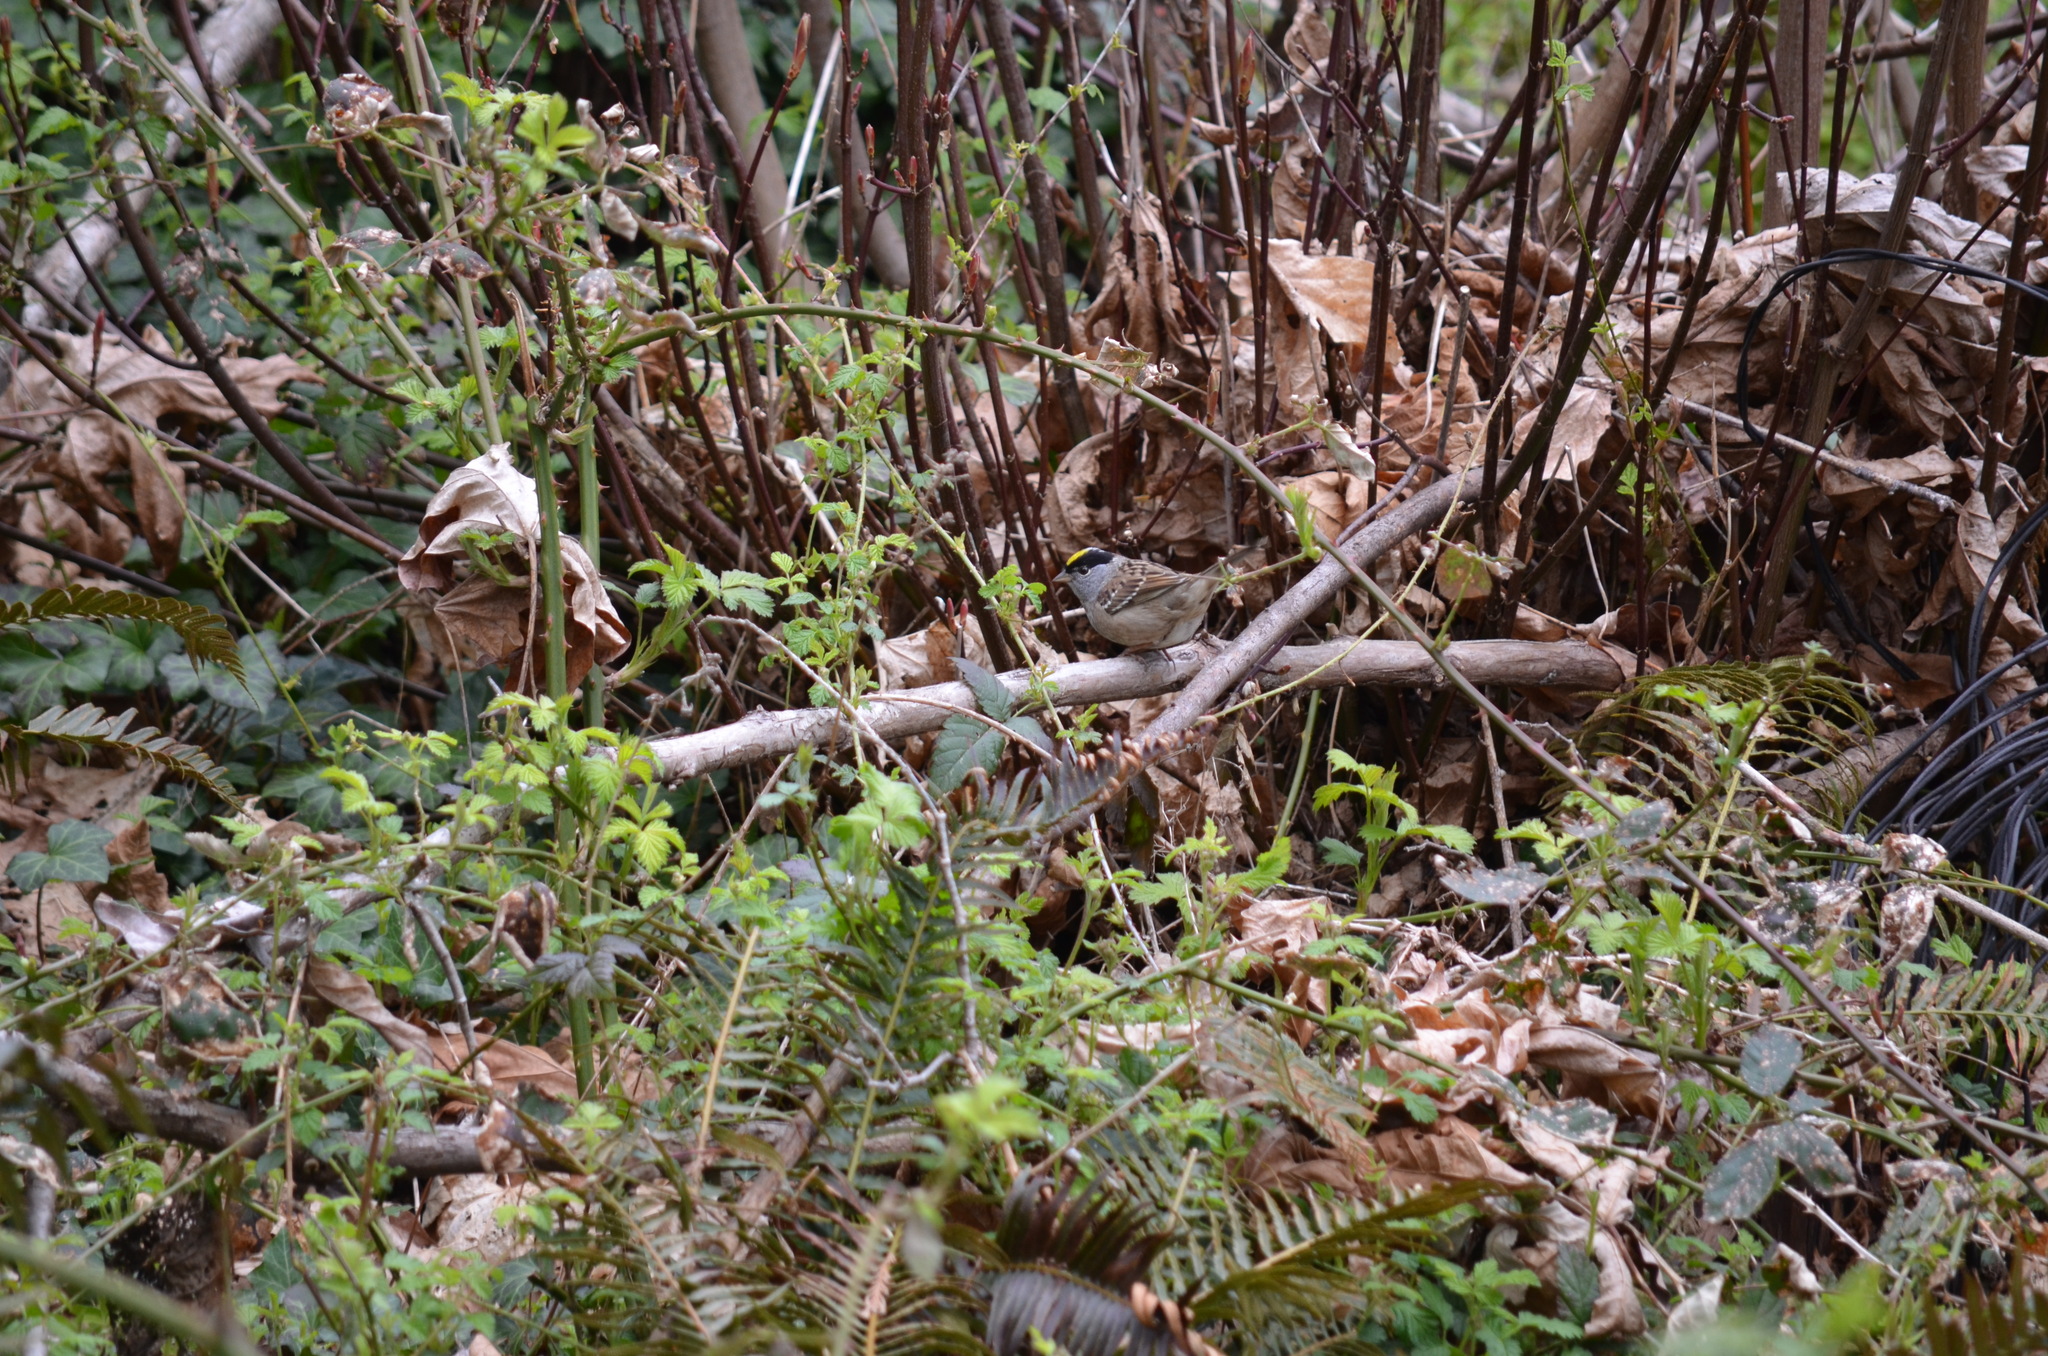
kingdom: Animalia
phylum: Chordata
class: Aves
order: Passeriformes
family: Passerellidae
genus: Zonotrichia
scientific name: Zonotrichia atricapilla
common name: Golden-crowned sparrow
